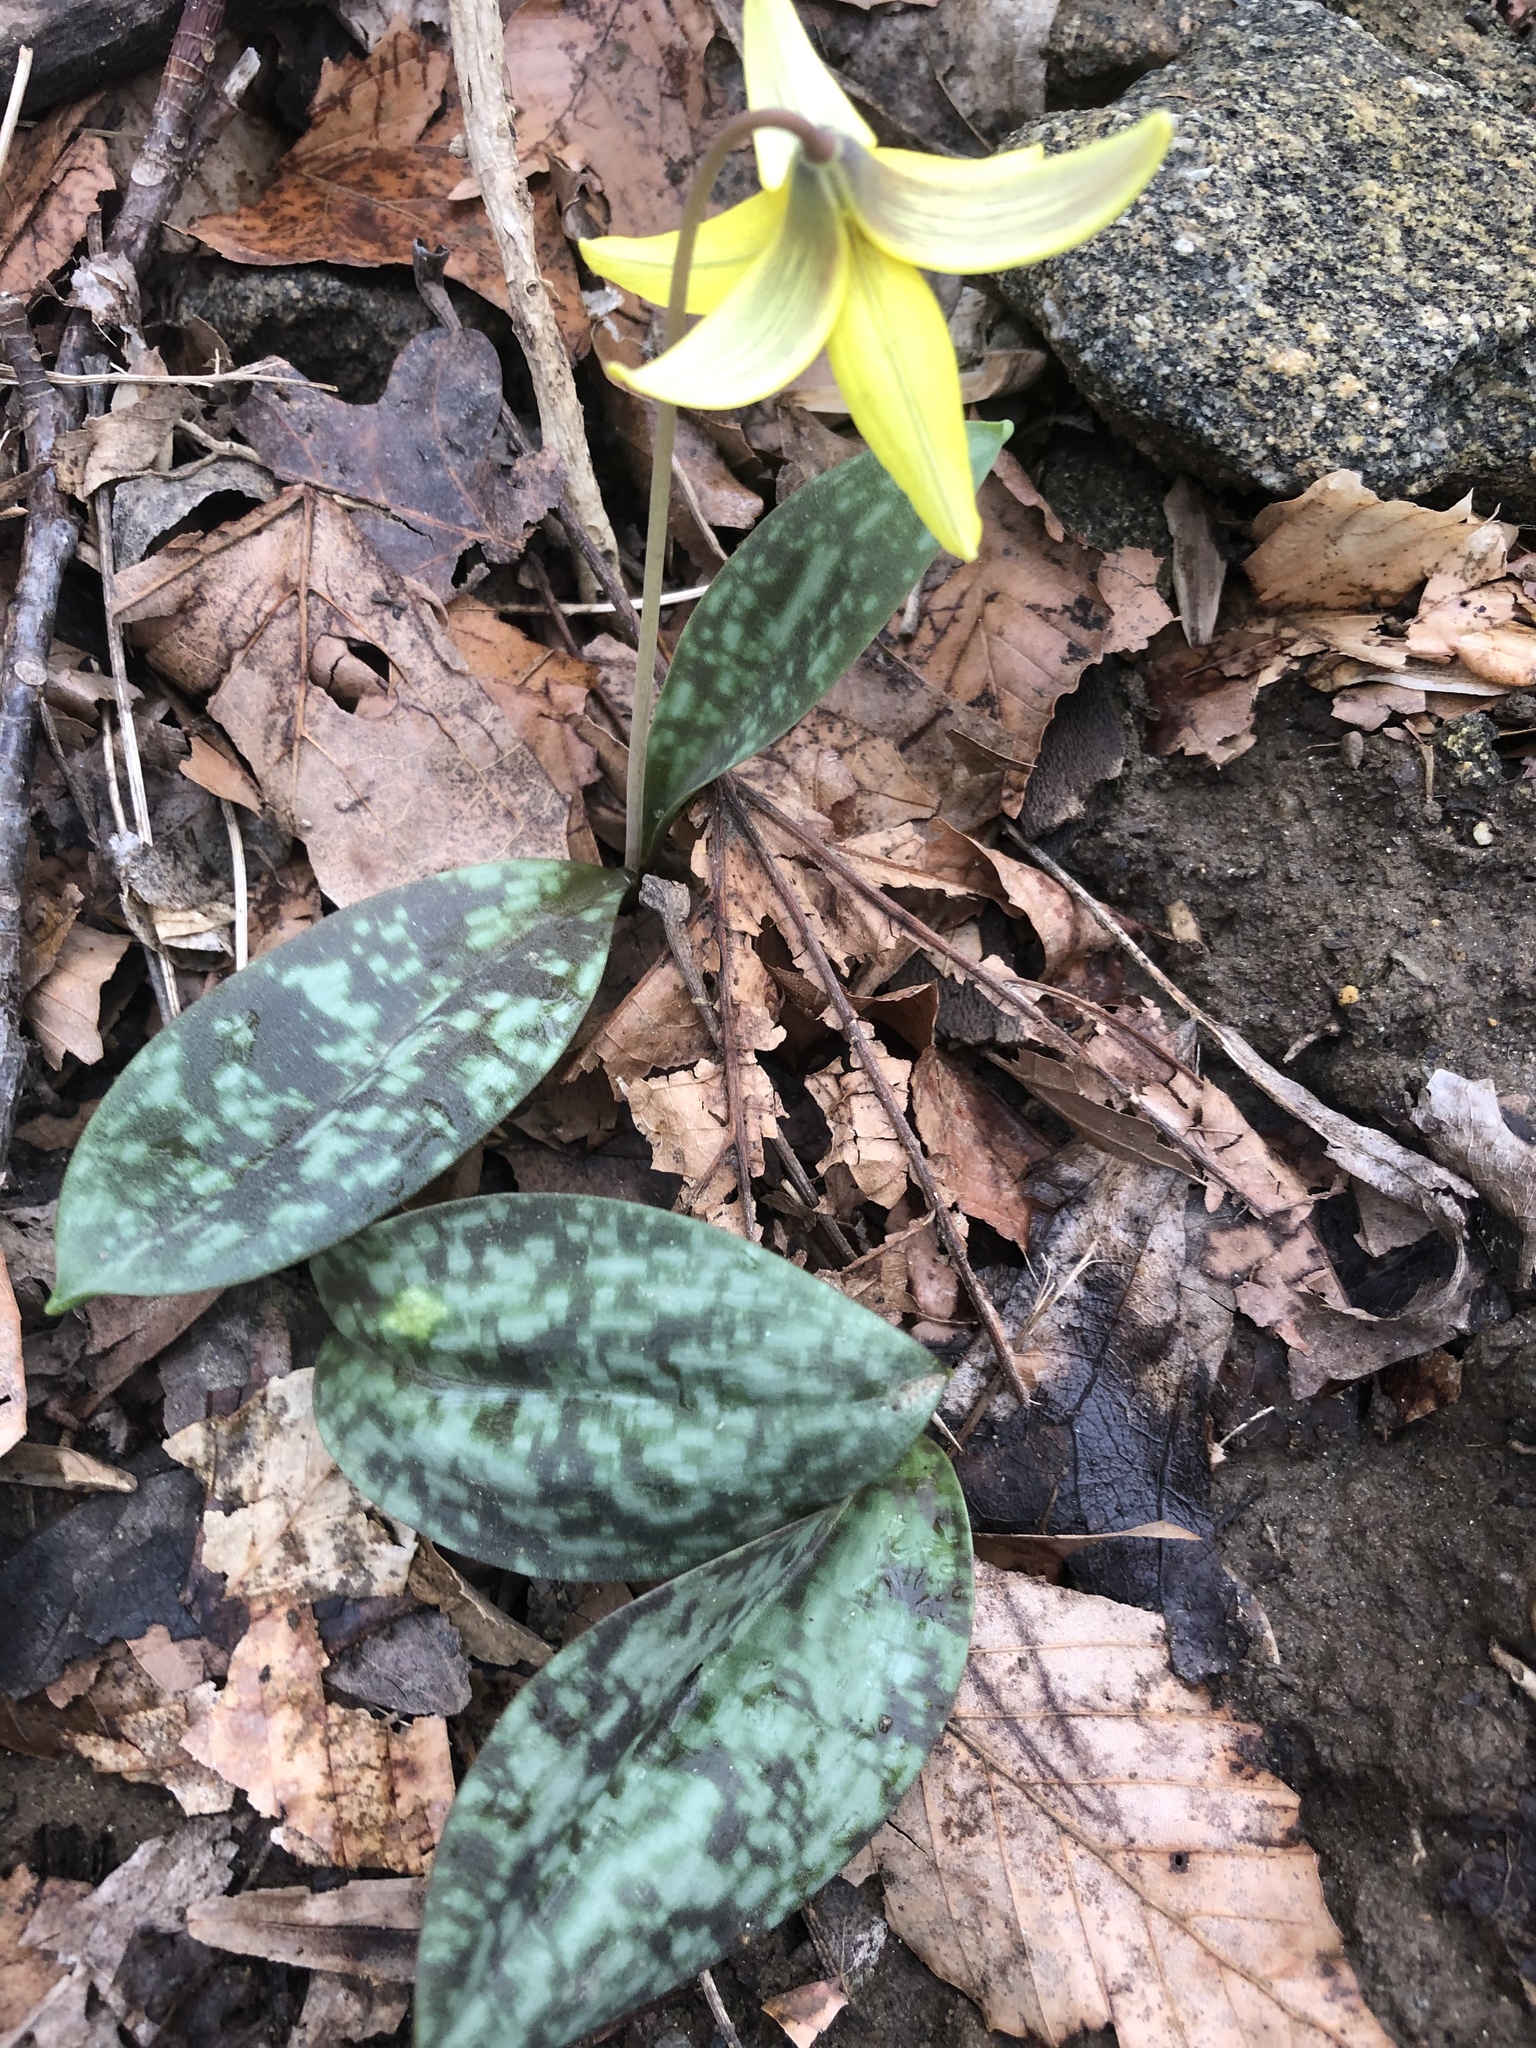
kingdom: Plantae
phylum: Tracheophyta
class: Liliopsida
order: Liliales
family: Liliaceae
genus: Erythronium
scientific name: Erythronium americanum
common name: Yellow adder's-tongue
